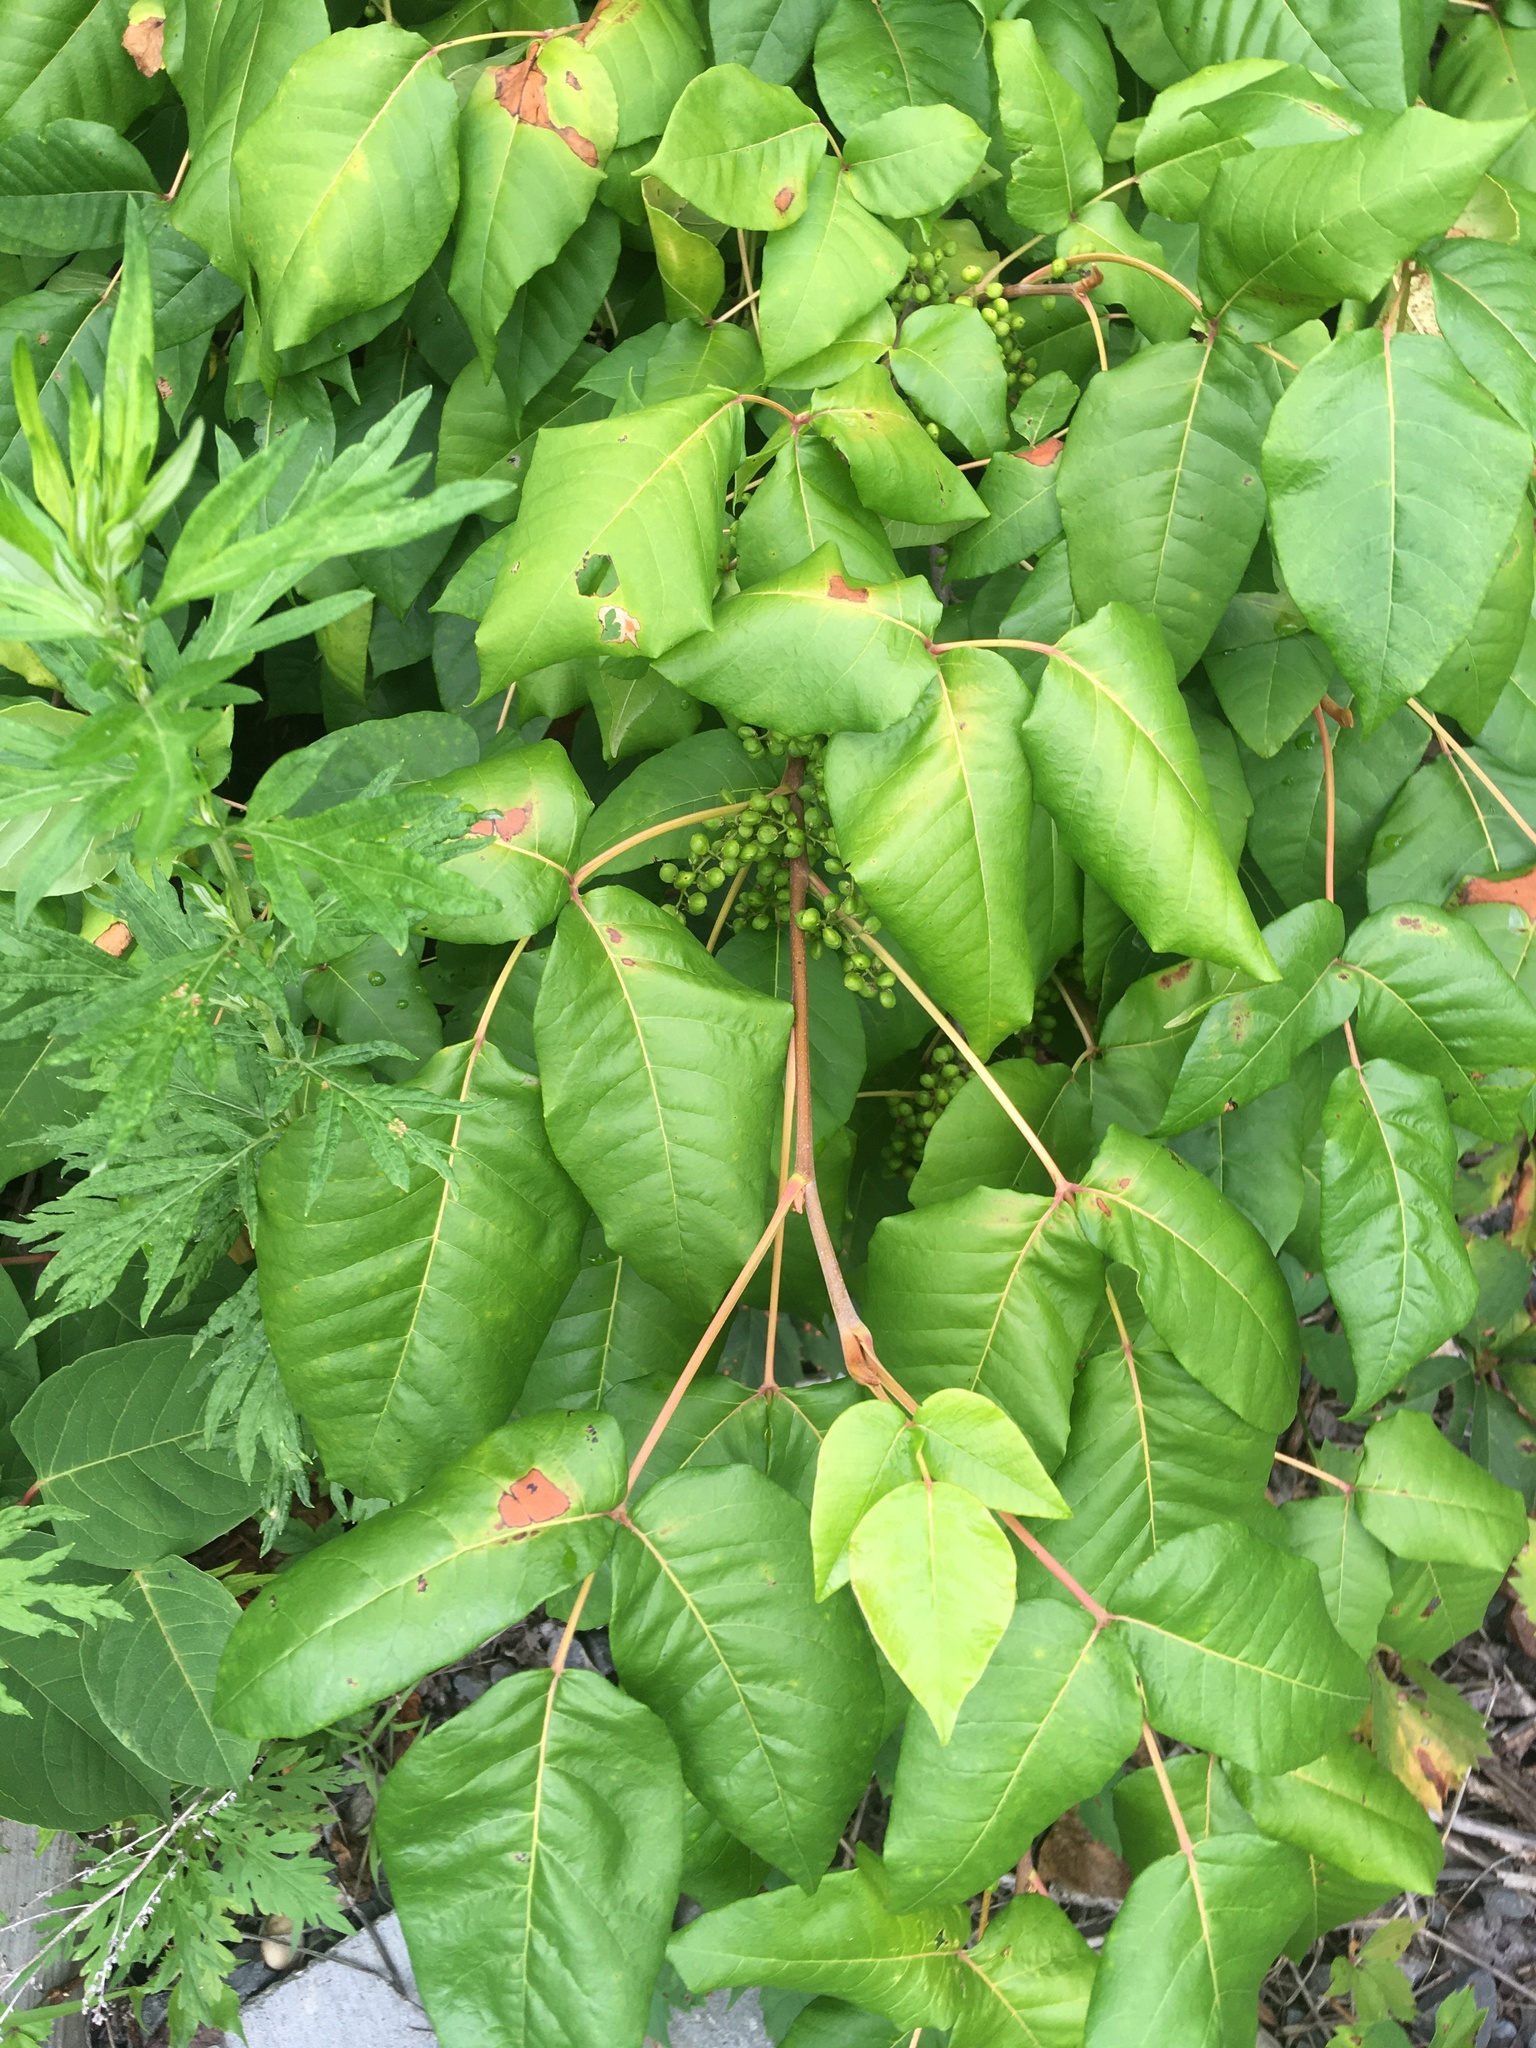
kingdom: Plantae
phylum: Tracheophyta
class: Magnoliopsida
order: Sapindales
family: Anacardiaceae
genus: Toxicodendron
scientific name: Toxicodendron radicans
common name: Poison ivy
